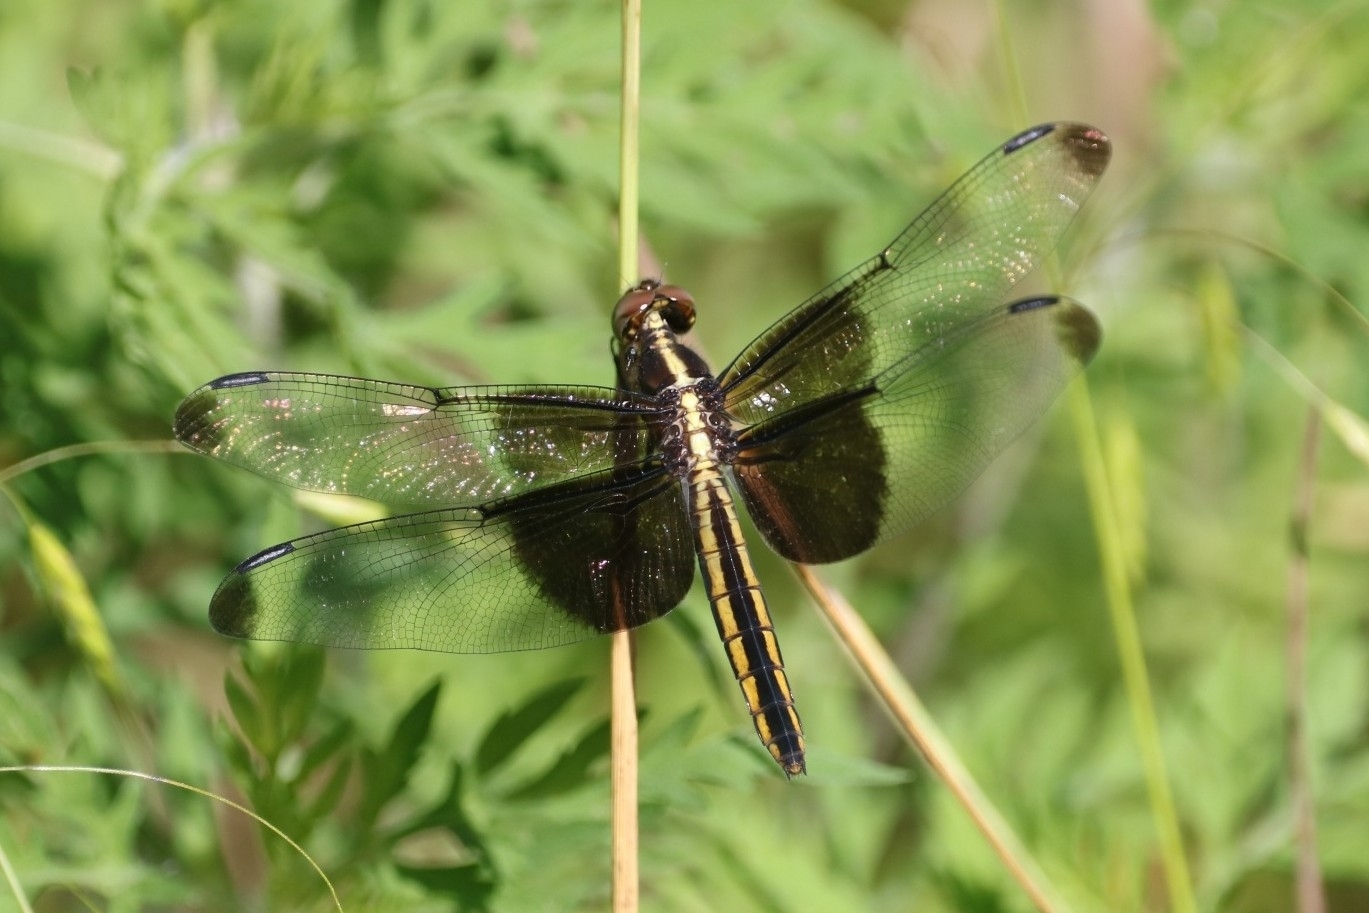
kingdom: Animalia
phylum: Arthropoda
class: Insecta
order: Odonata
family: Libellulidae
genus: Libellula
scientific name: Libellula luctuosa
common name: Widow skimmer
